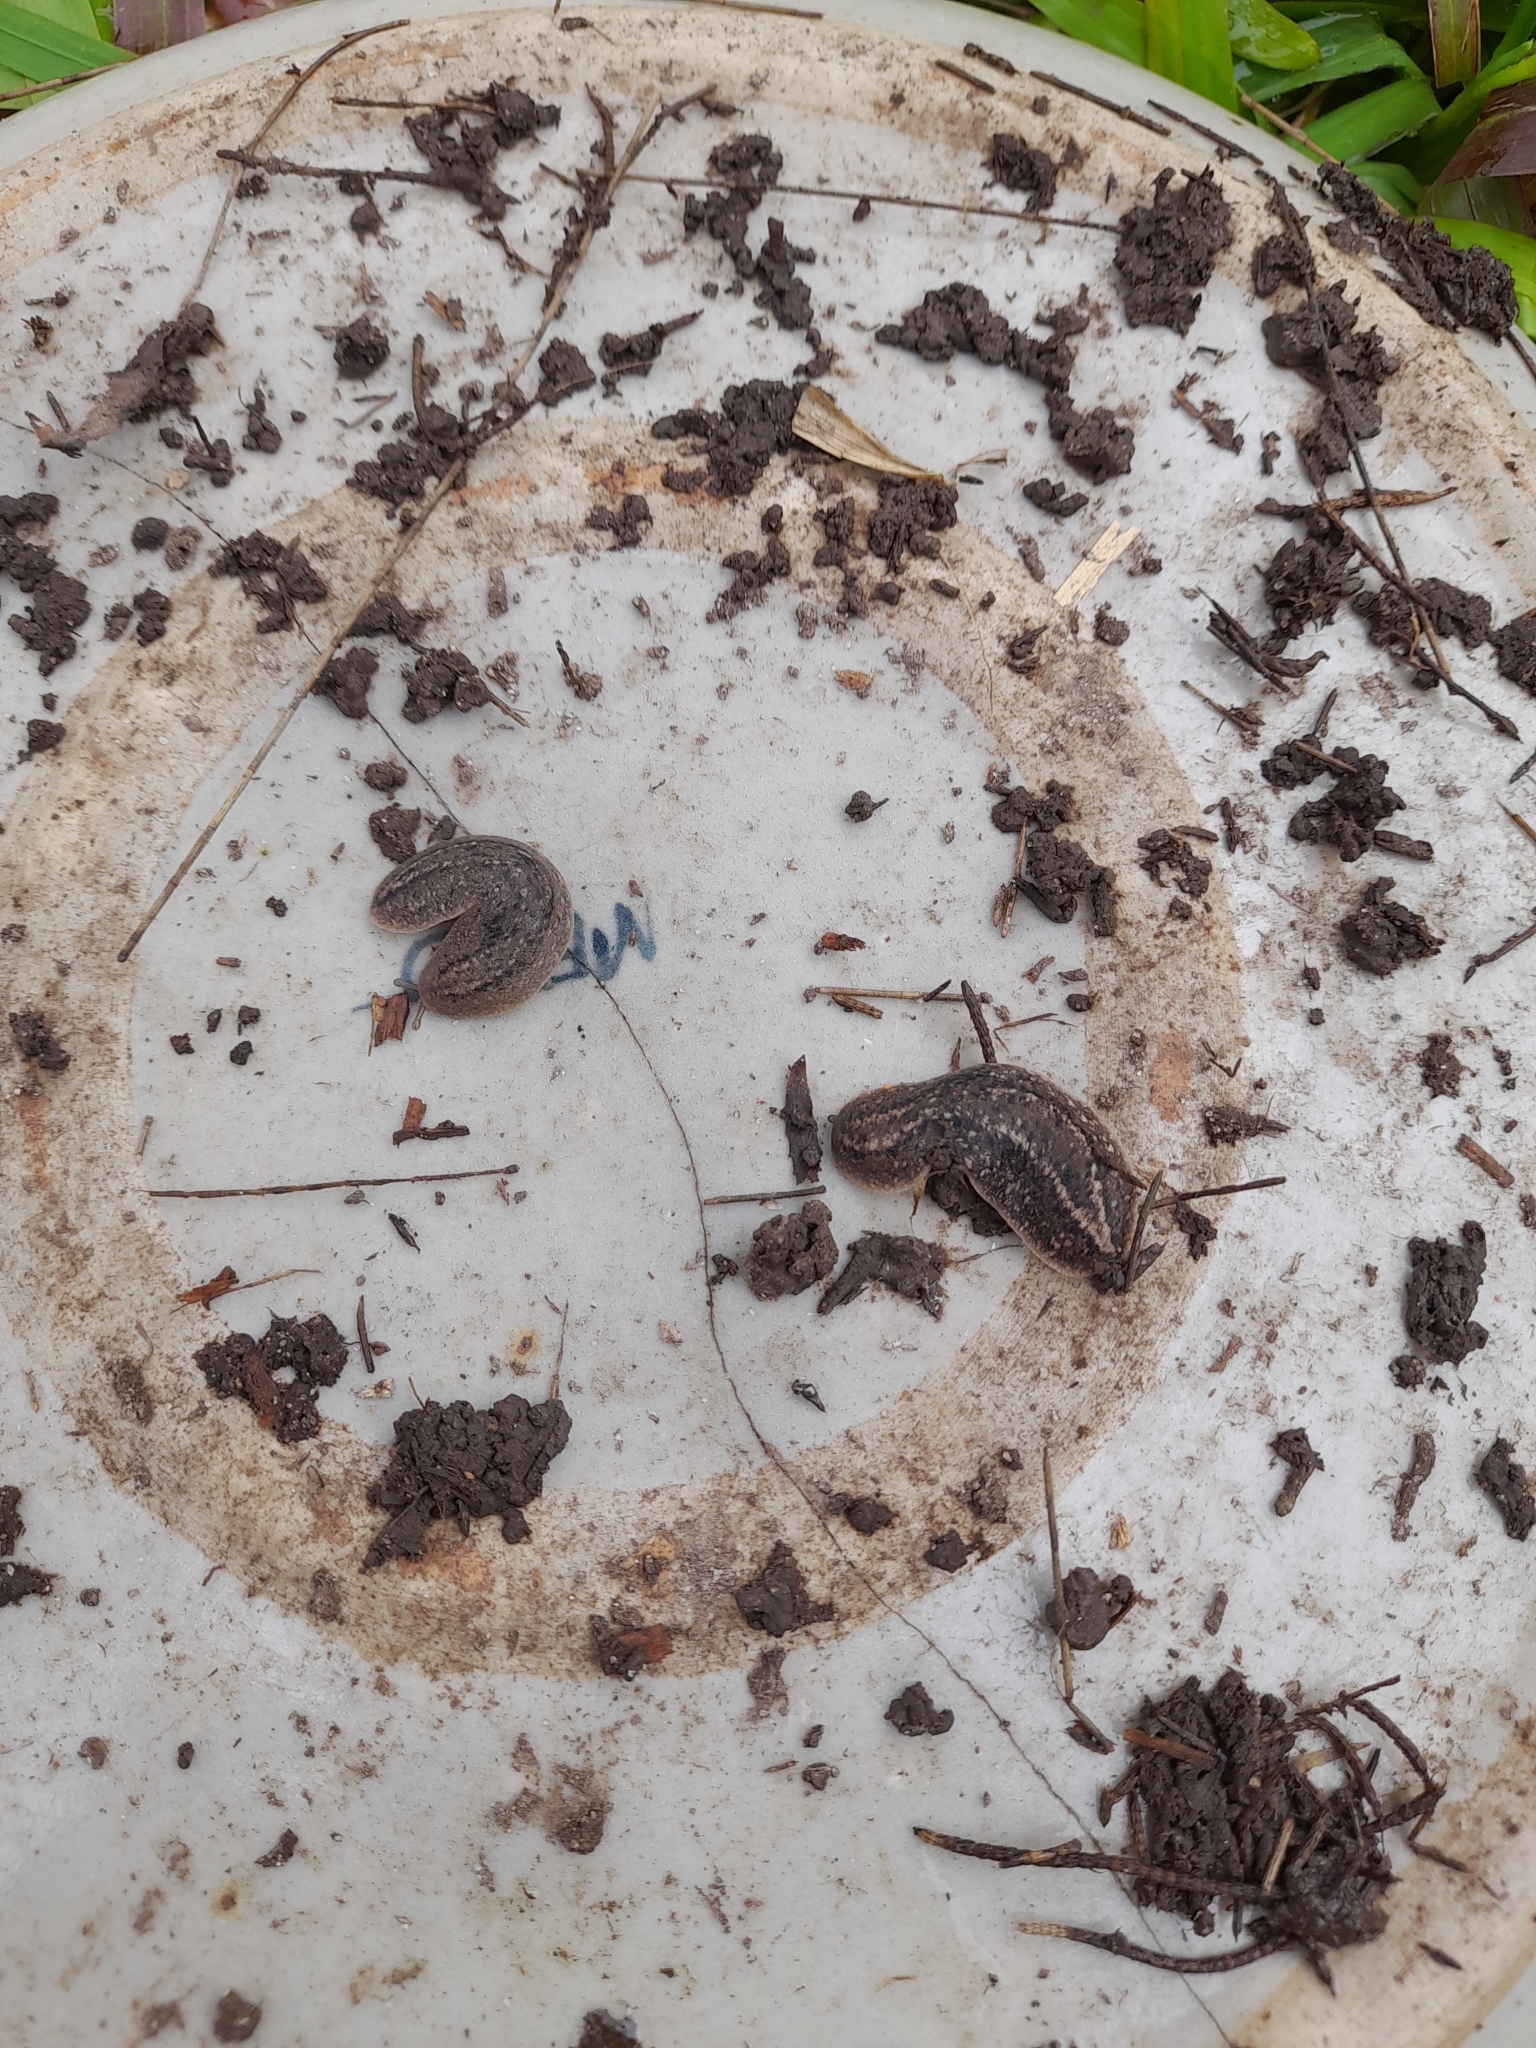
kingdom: Animalia
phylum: Mollusca
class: Gastropoda
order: Systellommatophora
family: Veronicellidae
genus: Phyllocaulis
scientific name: Phyllocaulis soleiformis
